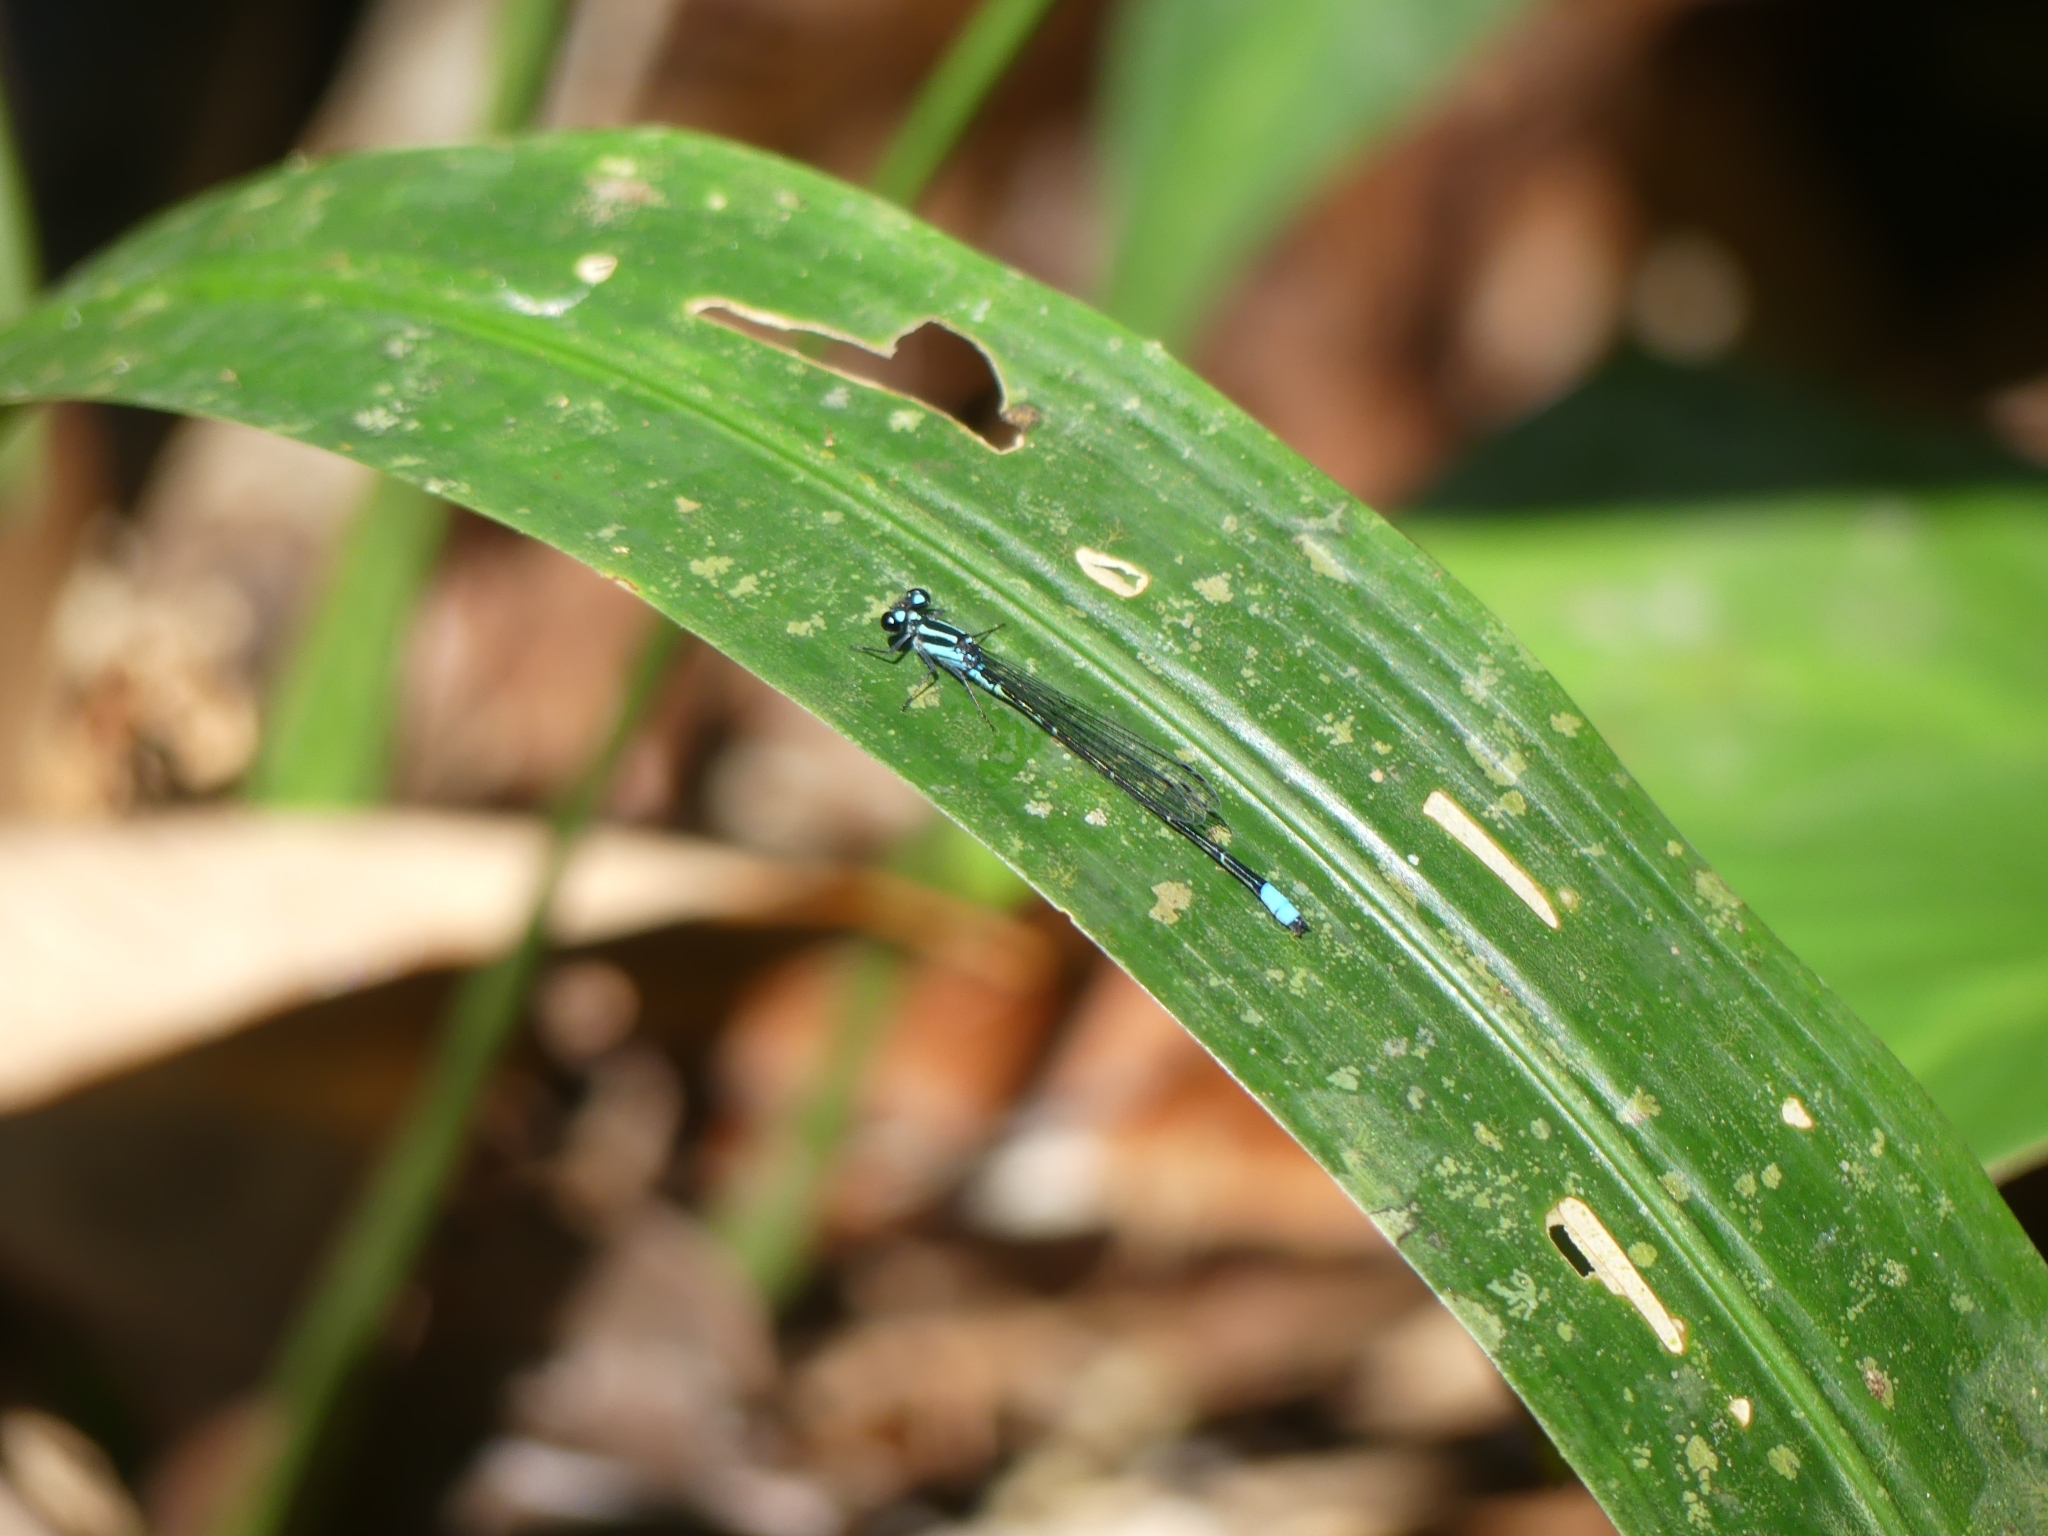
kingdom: Animalia
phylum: Arthropoda
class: Insecta
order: Odonata
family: Coenagrionidae
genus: Acanthagrion
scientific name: Acanthagrion
